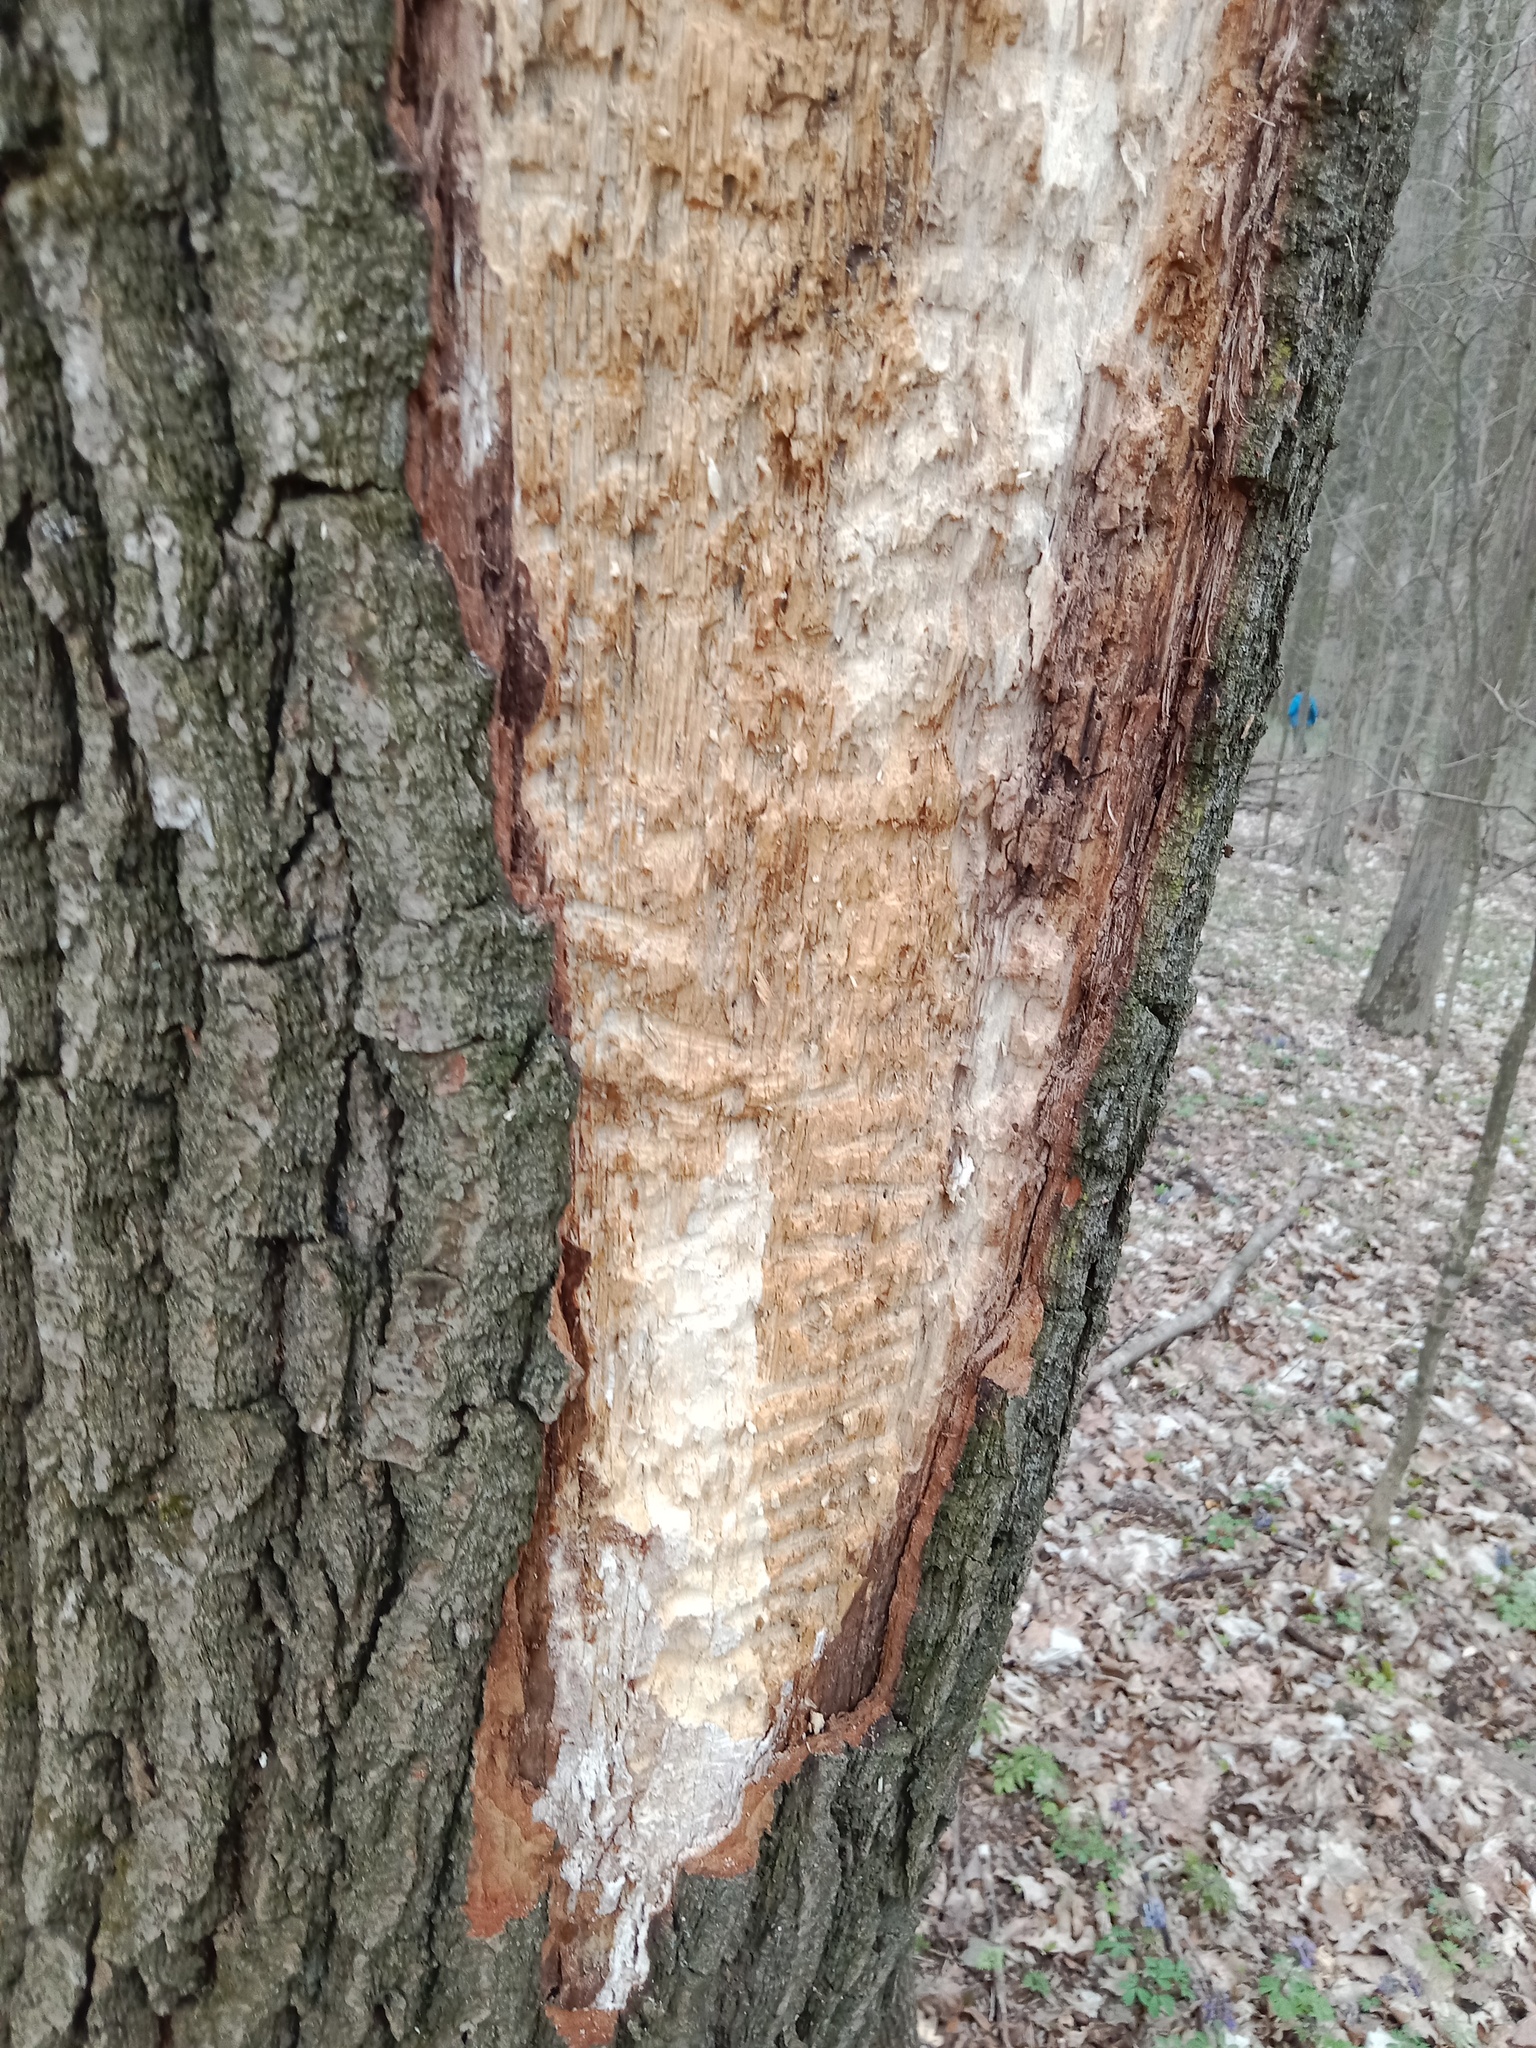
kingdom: Animalia
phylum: Chordata
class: Aves
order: Piciformes
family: Picidae
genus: Dryocopus
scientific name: Dryocopus martius
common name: Black woodpecker
